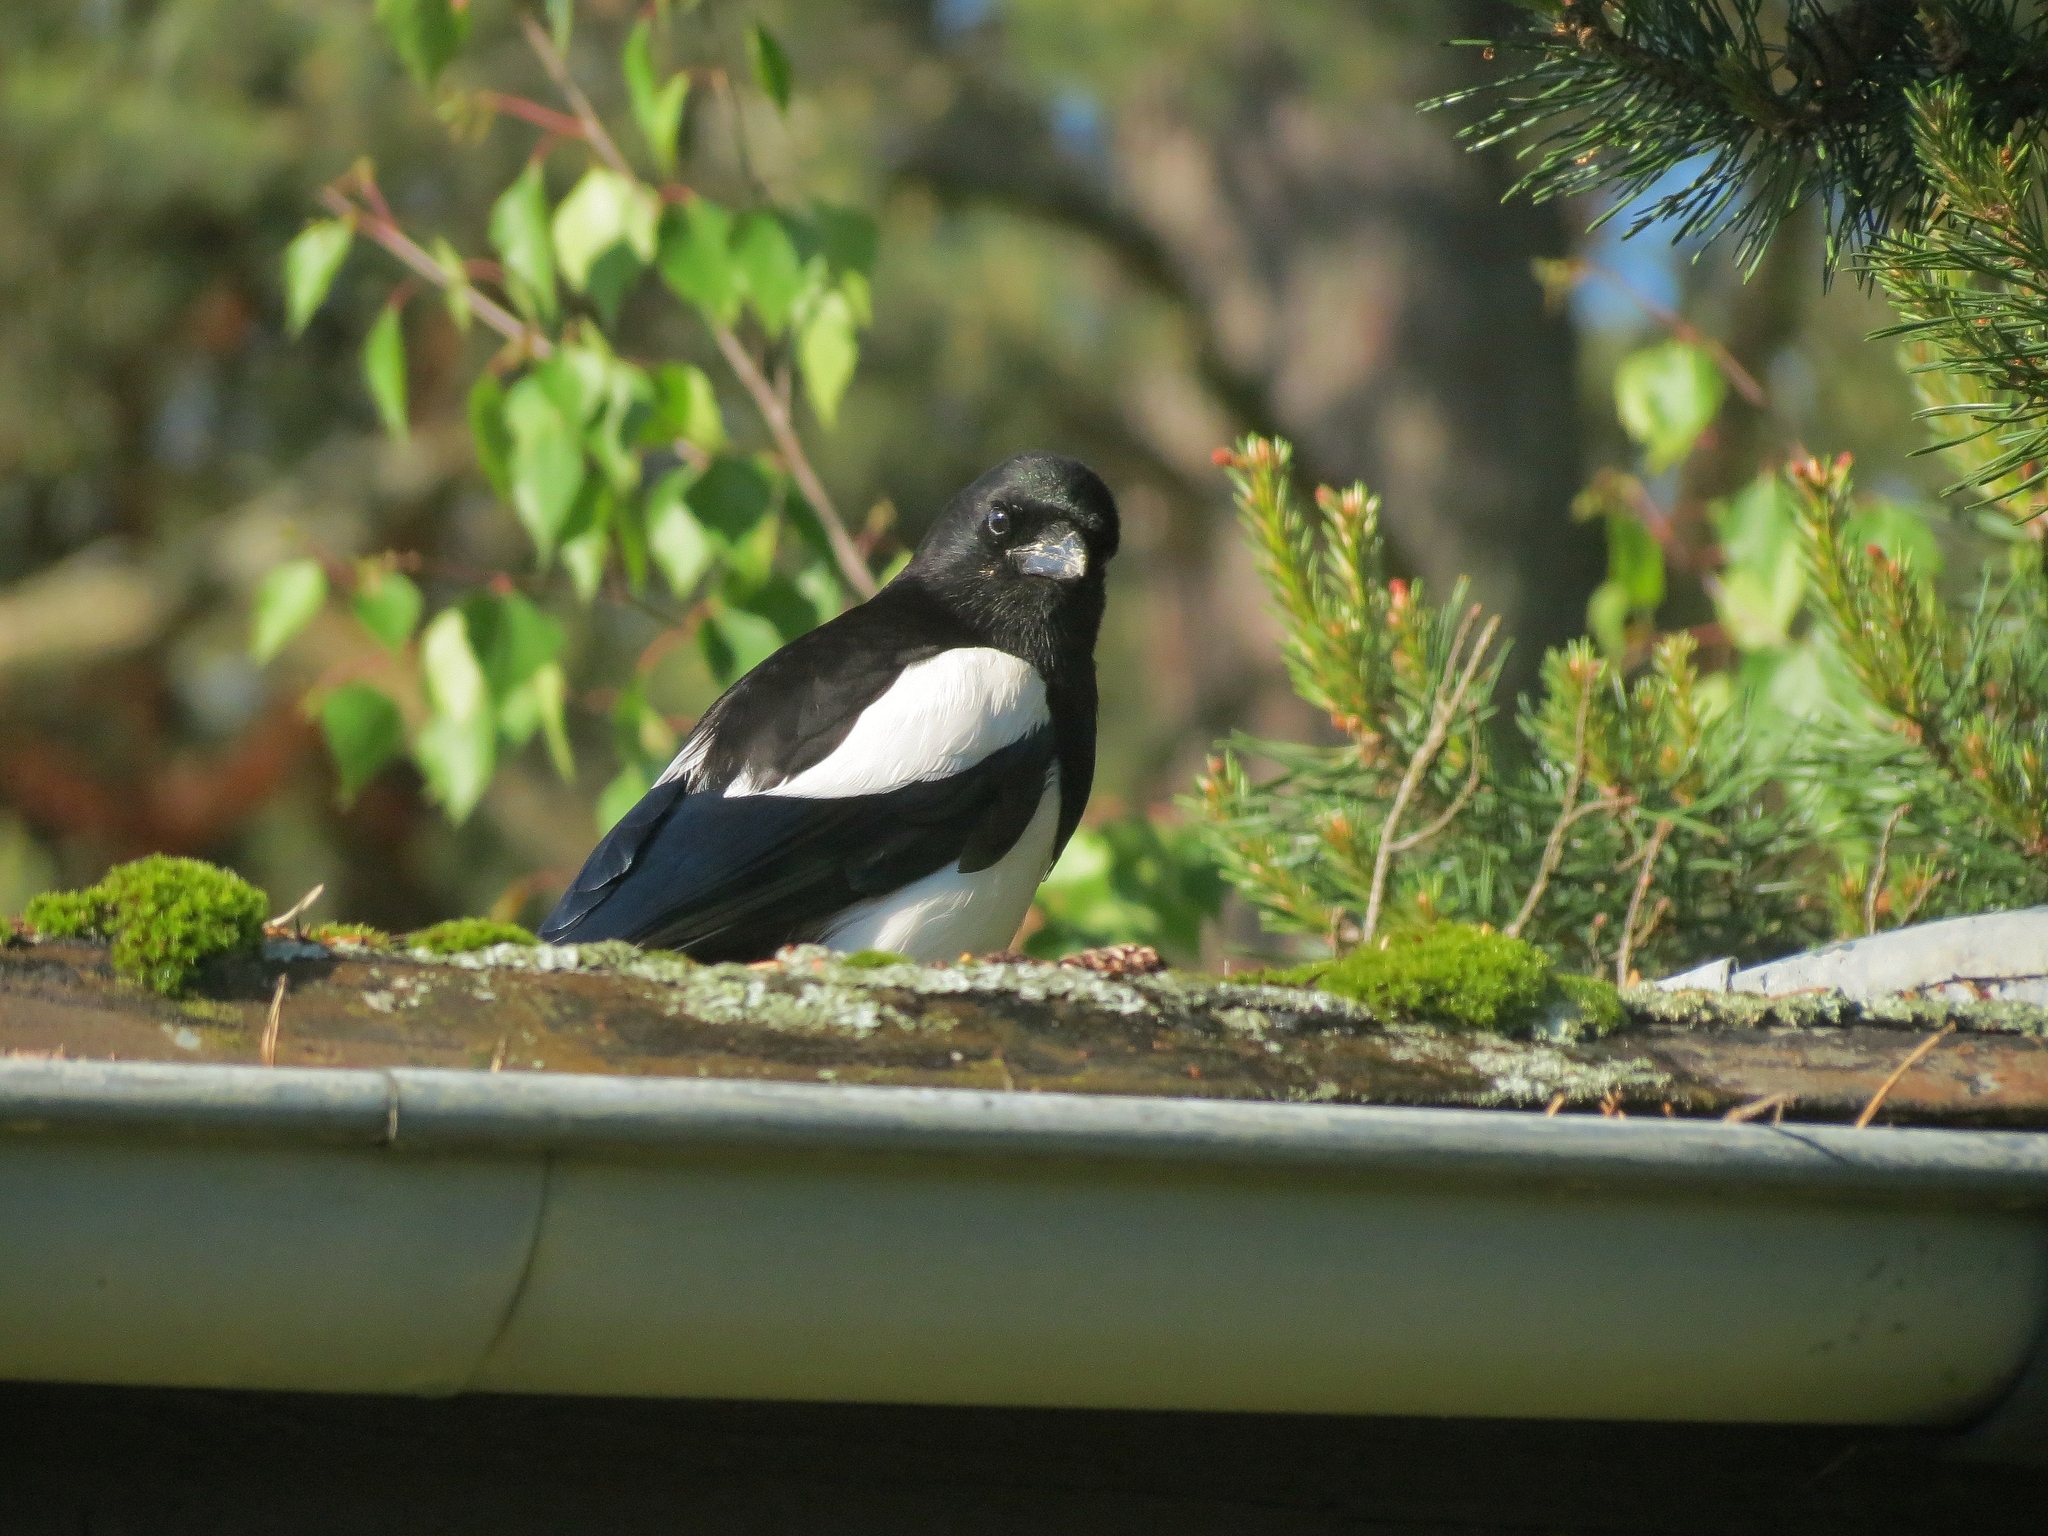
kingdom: Animalia
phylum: Chordata
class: Aves
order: Passeriformes
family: Corvidae
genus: Pica
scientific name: Pica pica
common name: Eurasian magpie
